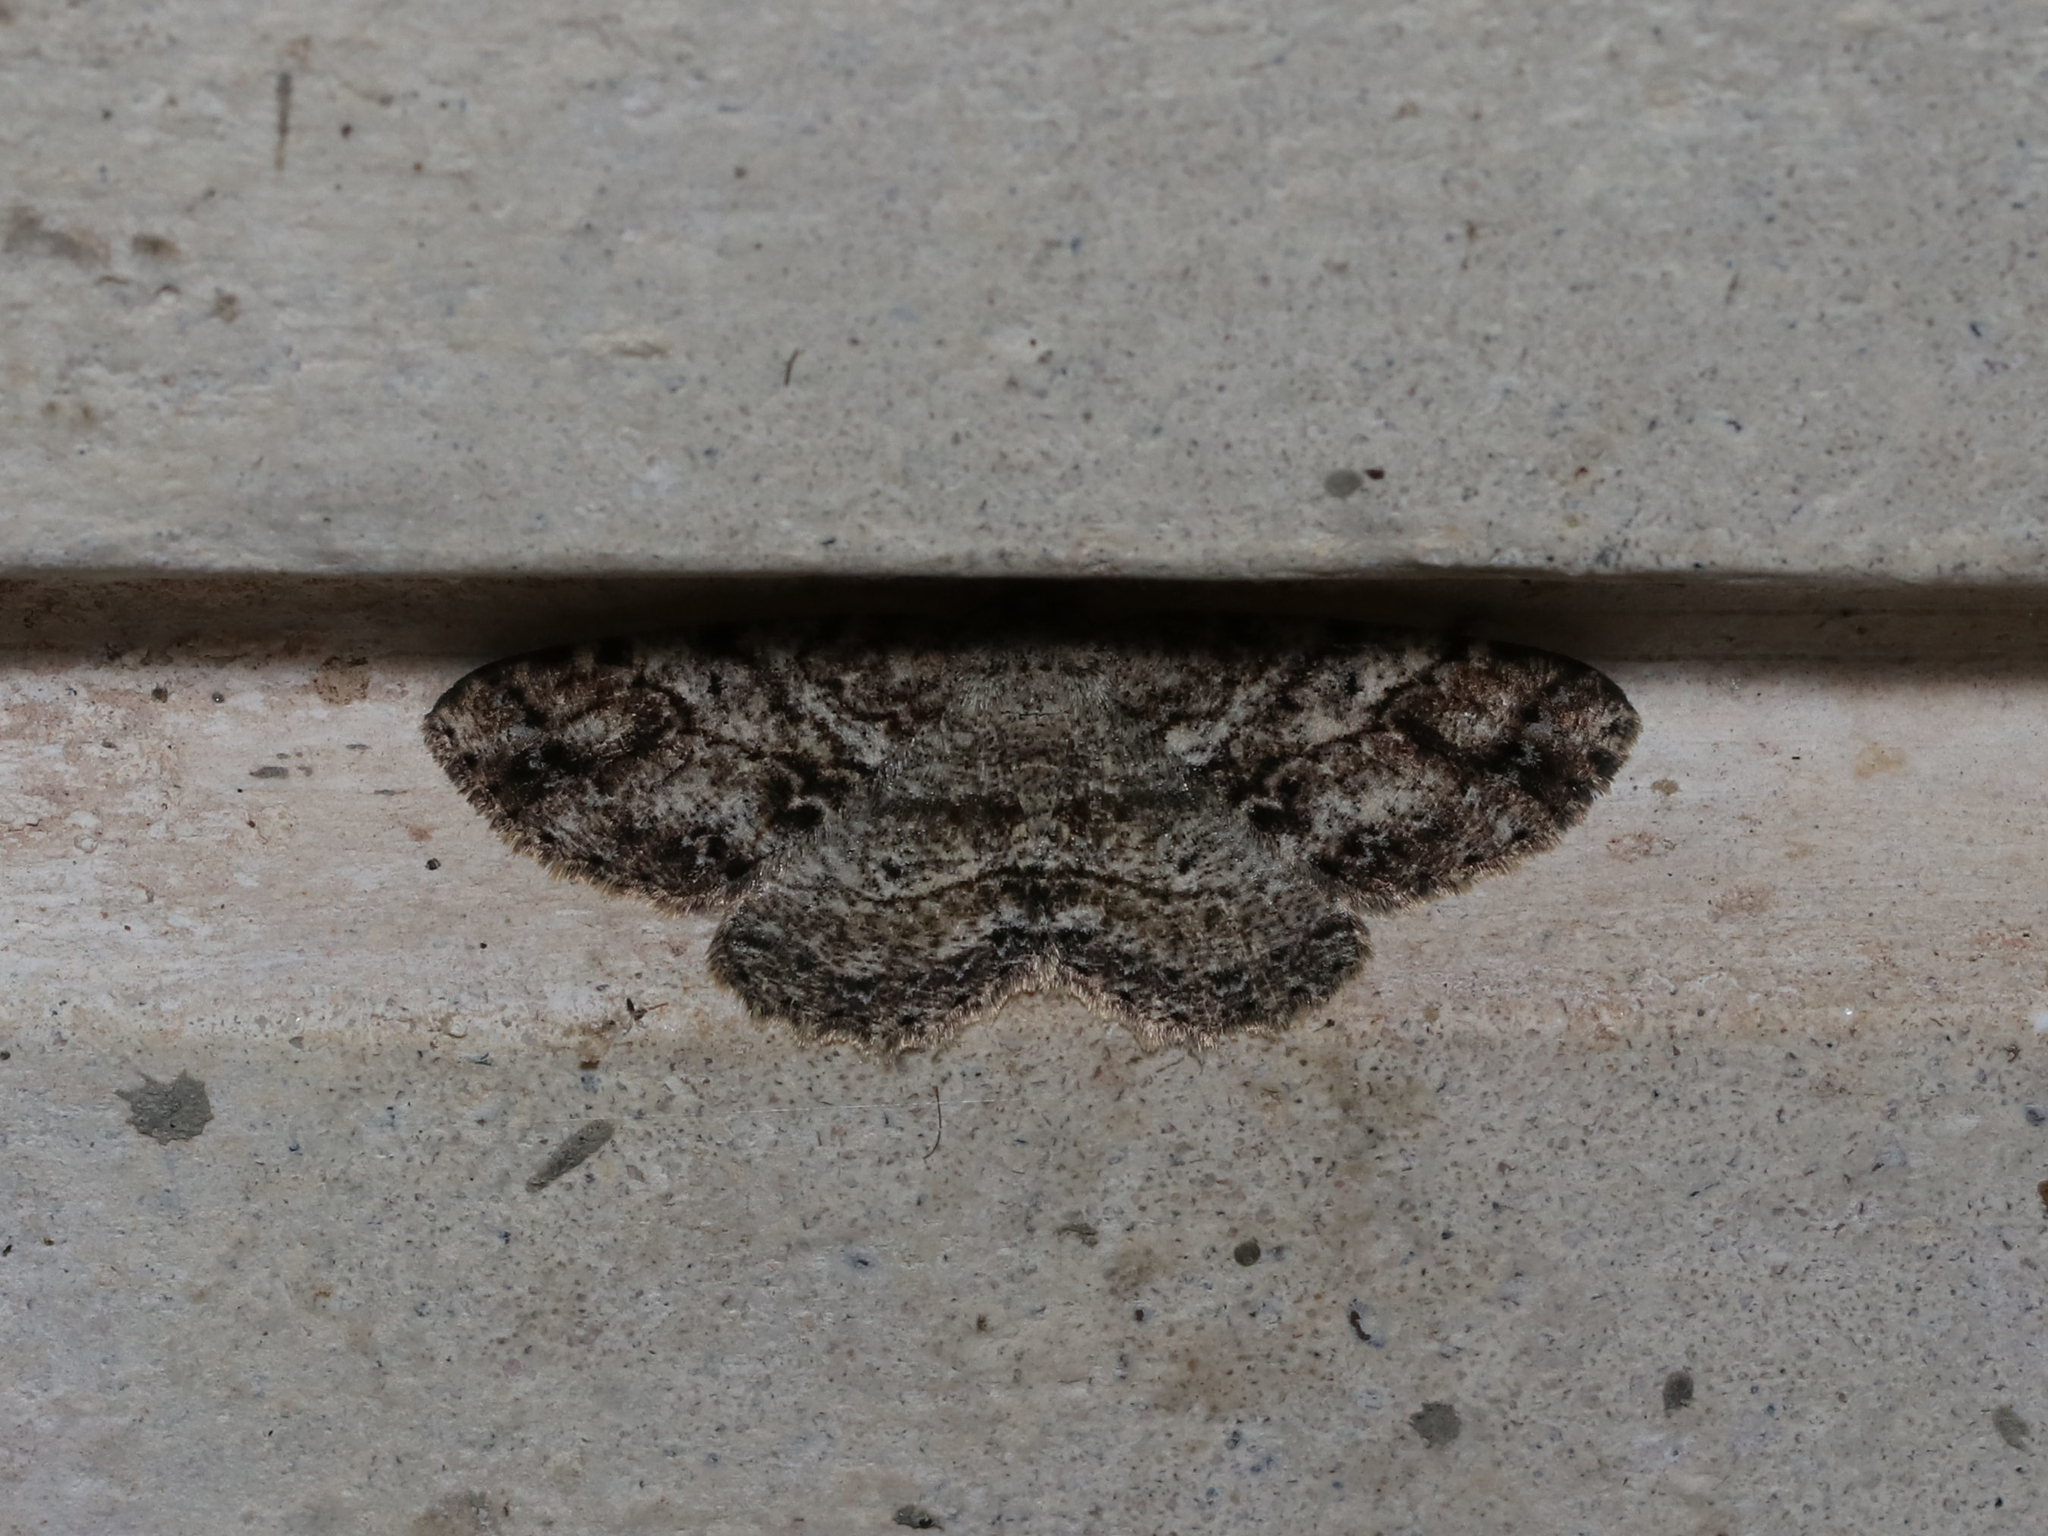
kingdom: Animalia
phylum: Arthropoda
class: Insecta
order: Lepidoptera
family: Geometridae
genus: Melanolophia
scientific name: Melanolophia canadaria
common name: Canadian melanolophia
